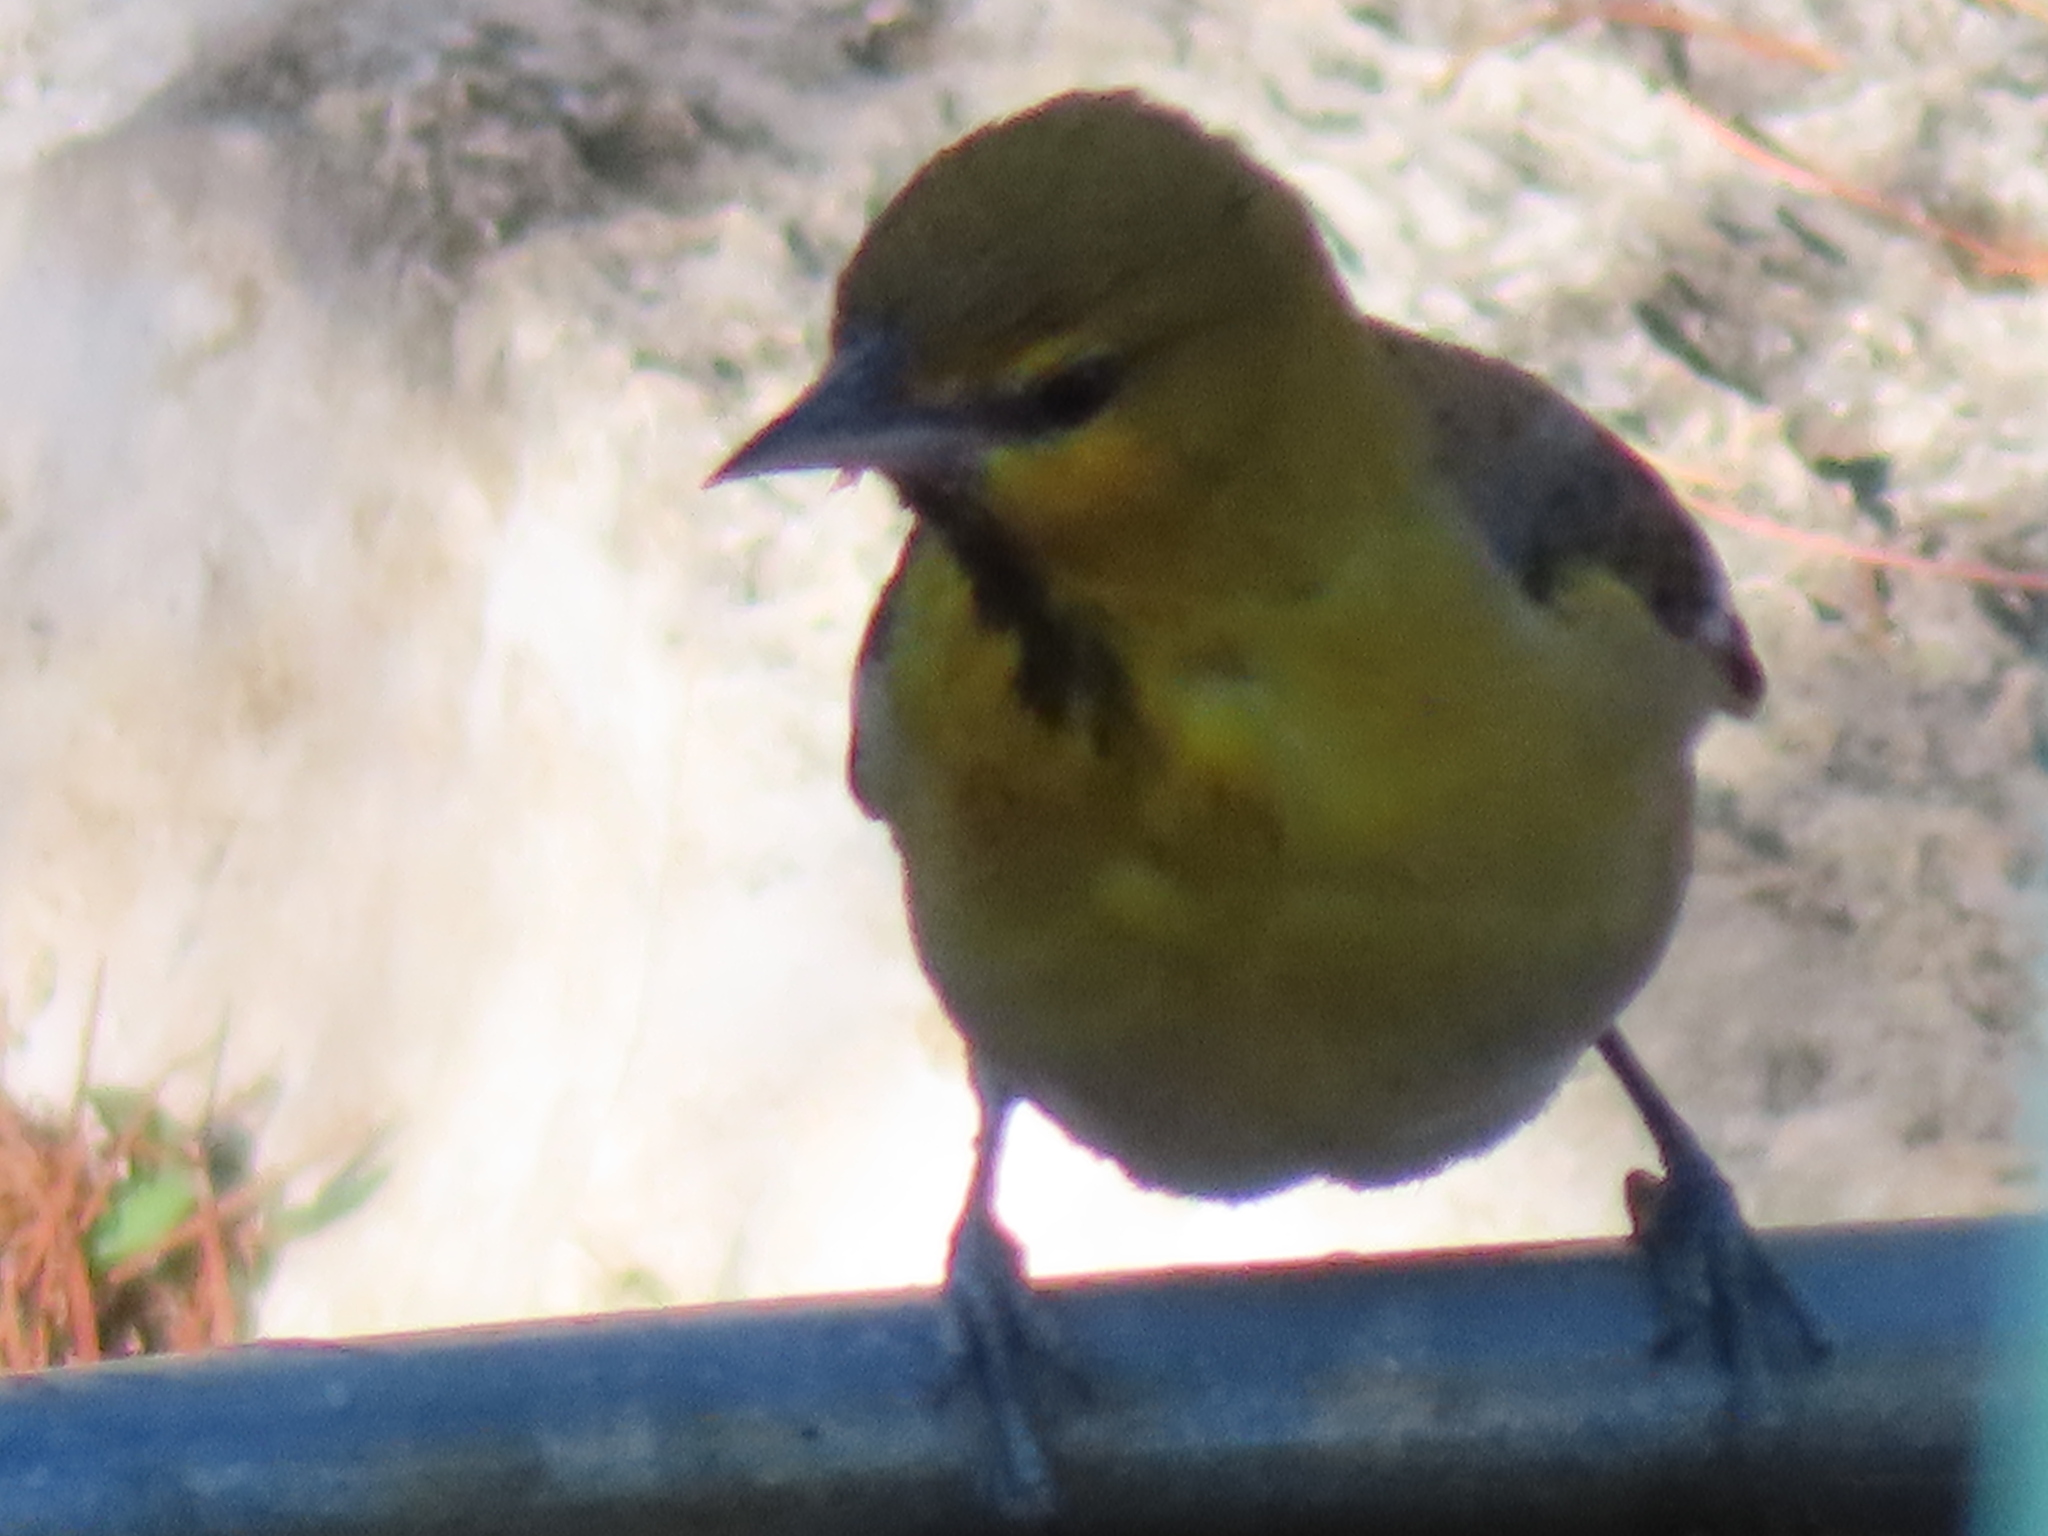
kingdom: Animalia
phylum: Chordata
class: Aves
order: Passeriformes
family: Icteridae
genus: Icterus
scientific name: Icterus bullockii
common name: Bullock's oriole
